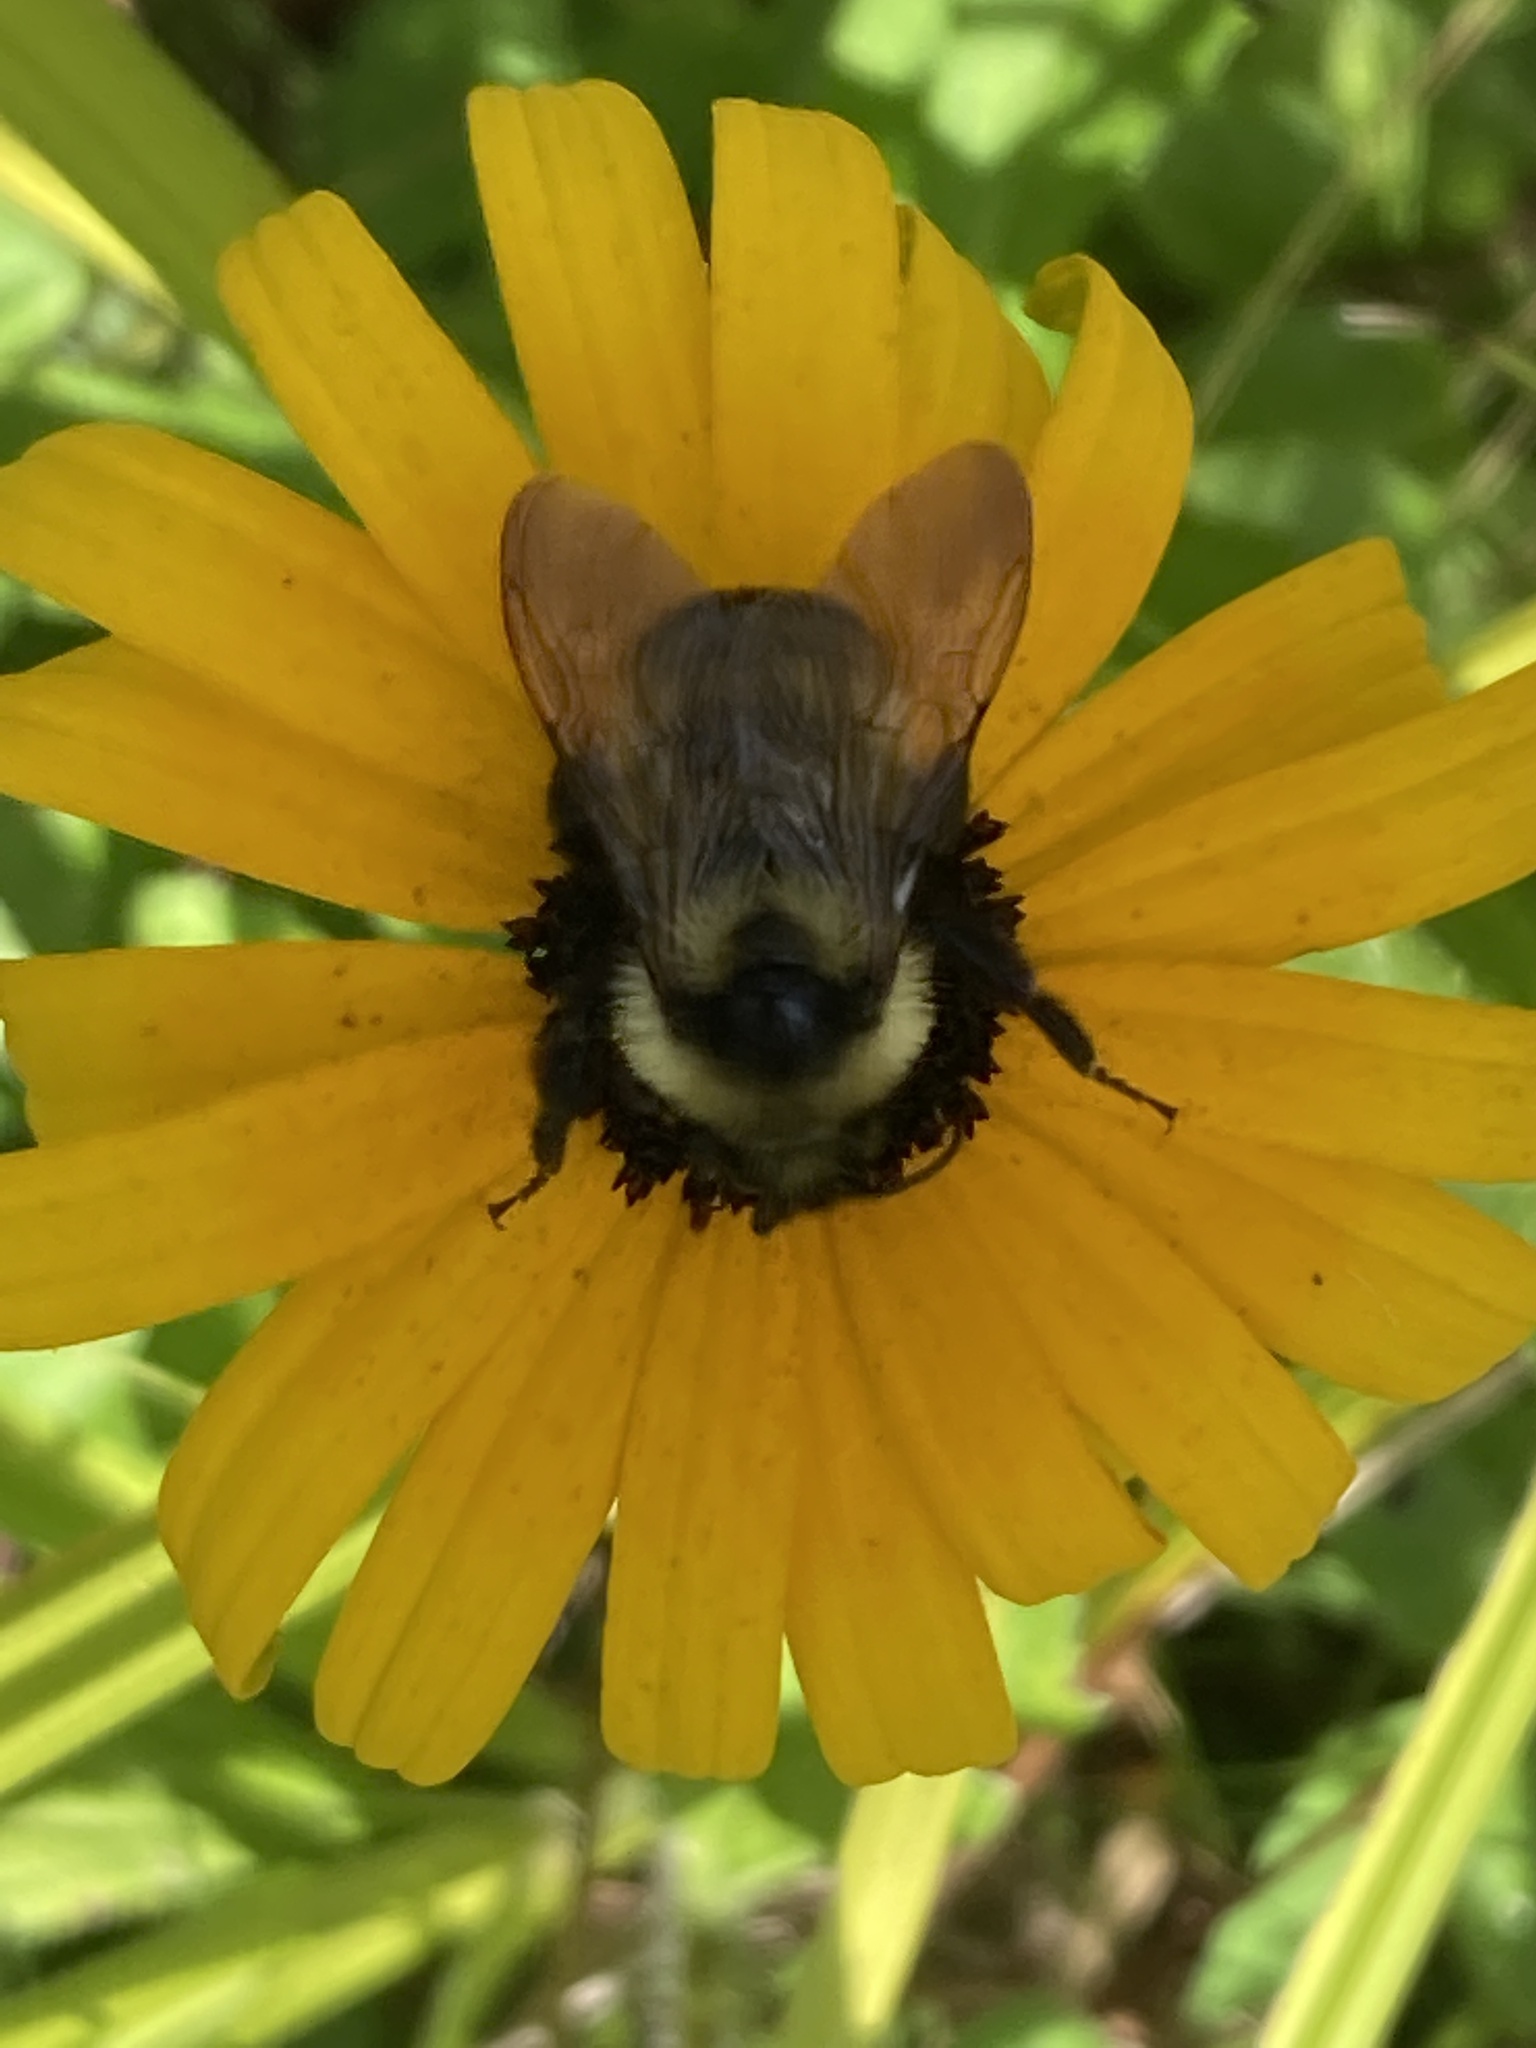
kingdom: Animalia
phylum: Arthropoda
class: Insecta
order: Hymenoptera
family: Apidae
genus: Bombus
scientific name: Bombus citrinus
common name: Lemon cuckoo bumble bee
